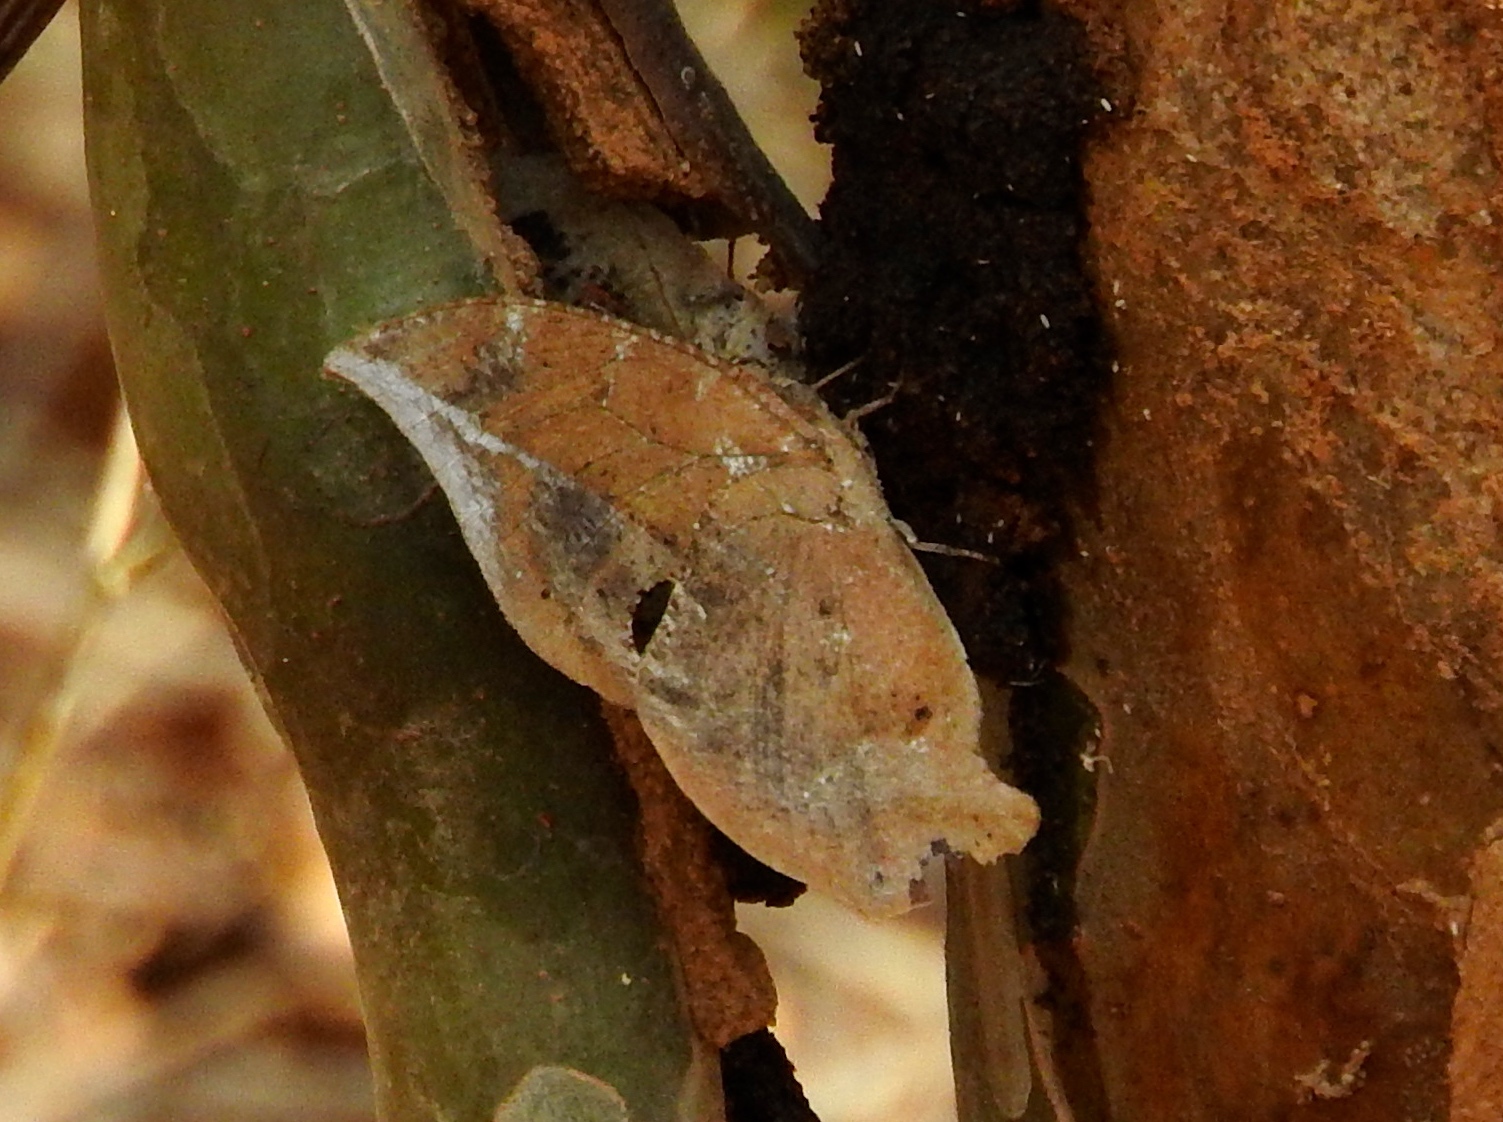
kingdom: Animalia
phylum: Arthropoda
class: Insecta
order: Lepidoptera
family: Nymphalidae
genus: Memphis
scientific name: Memphis forreri
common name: Forrer's leafwing
